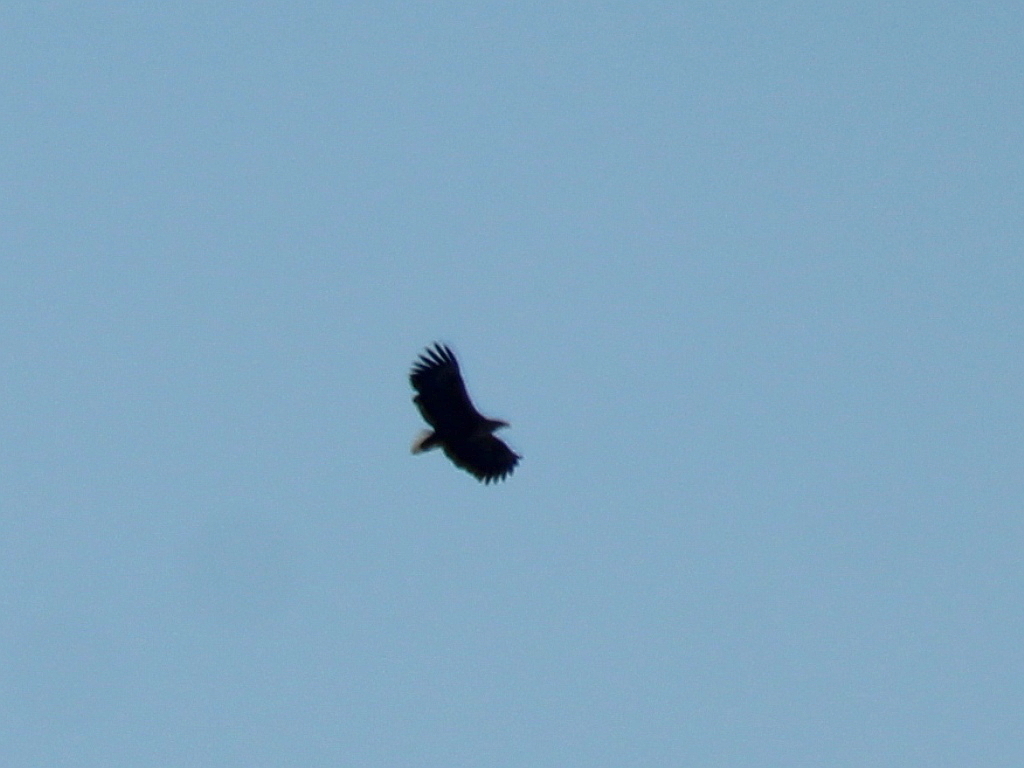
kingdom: Animalia
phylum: Chordata
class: Aves
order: Accipitriformes
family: Accipitridae
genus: Haliaeetus
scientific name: Haliaeetus albicilla
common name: White-tailed eagle
